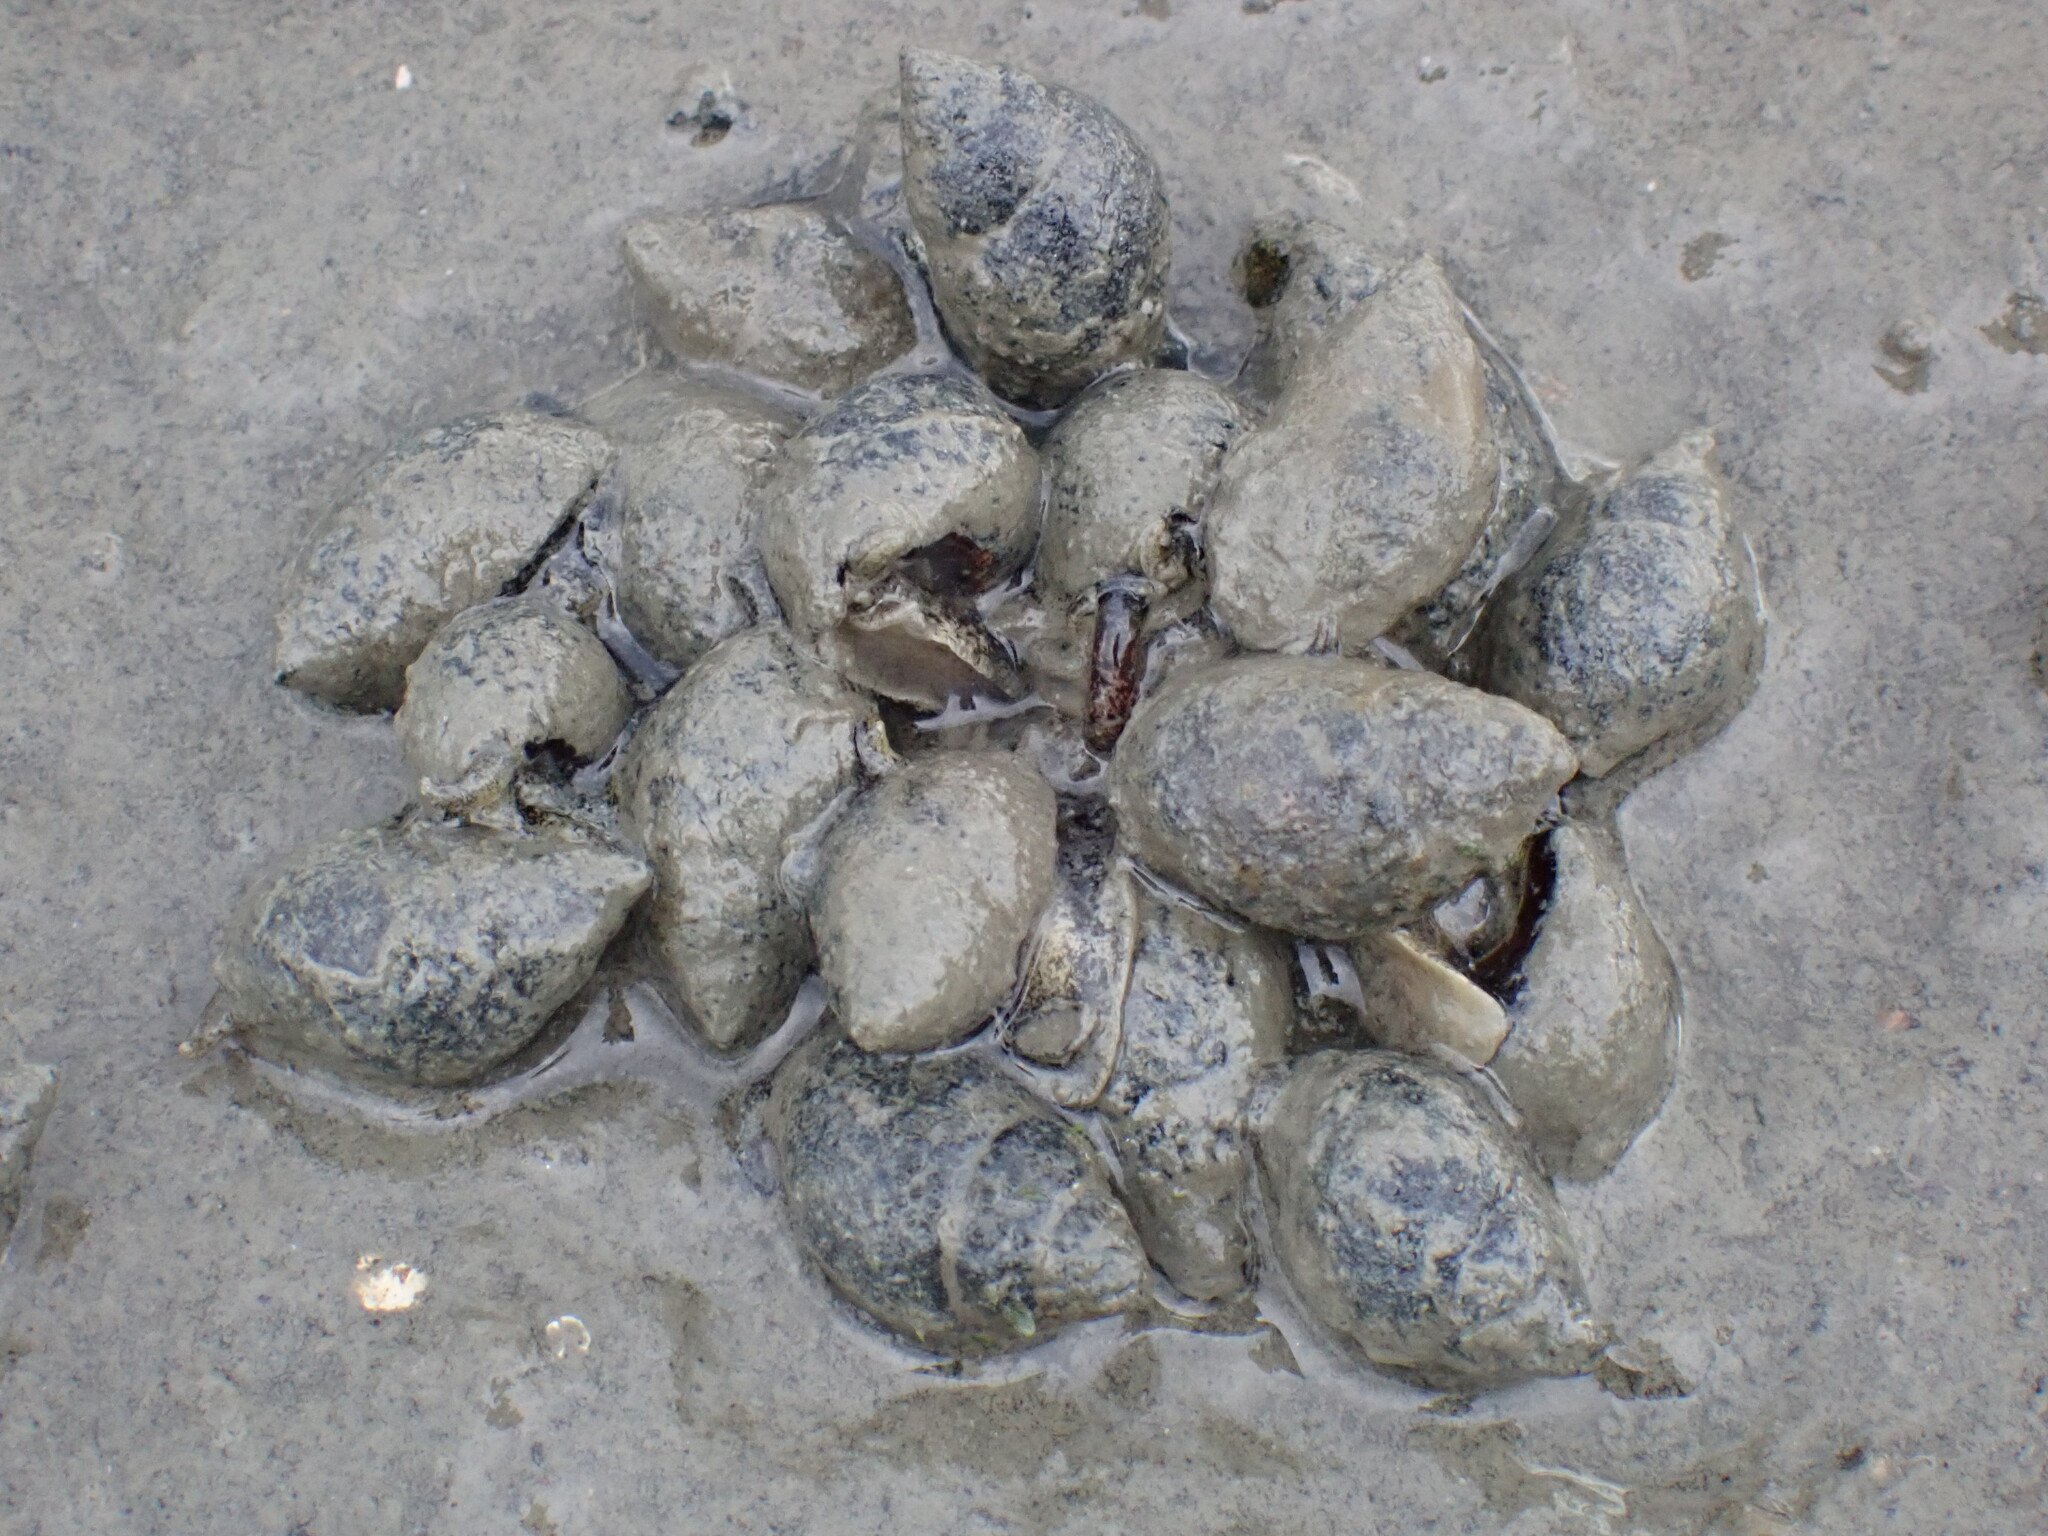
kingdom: Animalia
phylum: Mollusca
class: Gastropoda
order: Neogastropoda
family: Nassariidae
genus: Ilyanassa
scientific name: Ilyanassa obsoleta
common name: Eastern mudsnail
